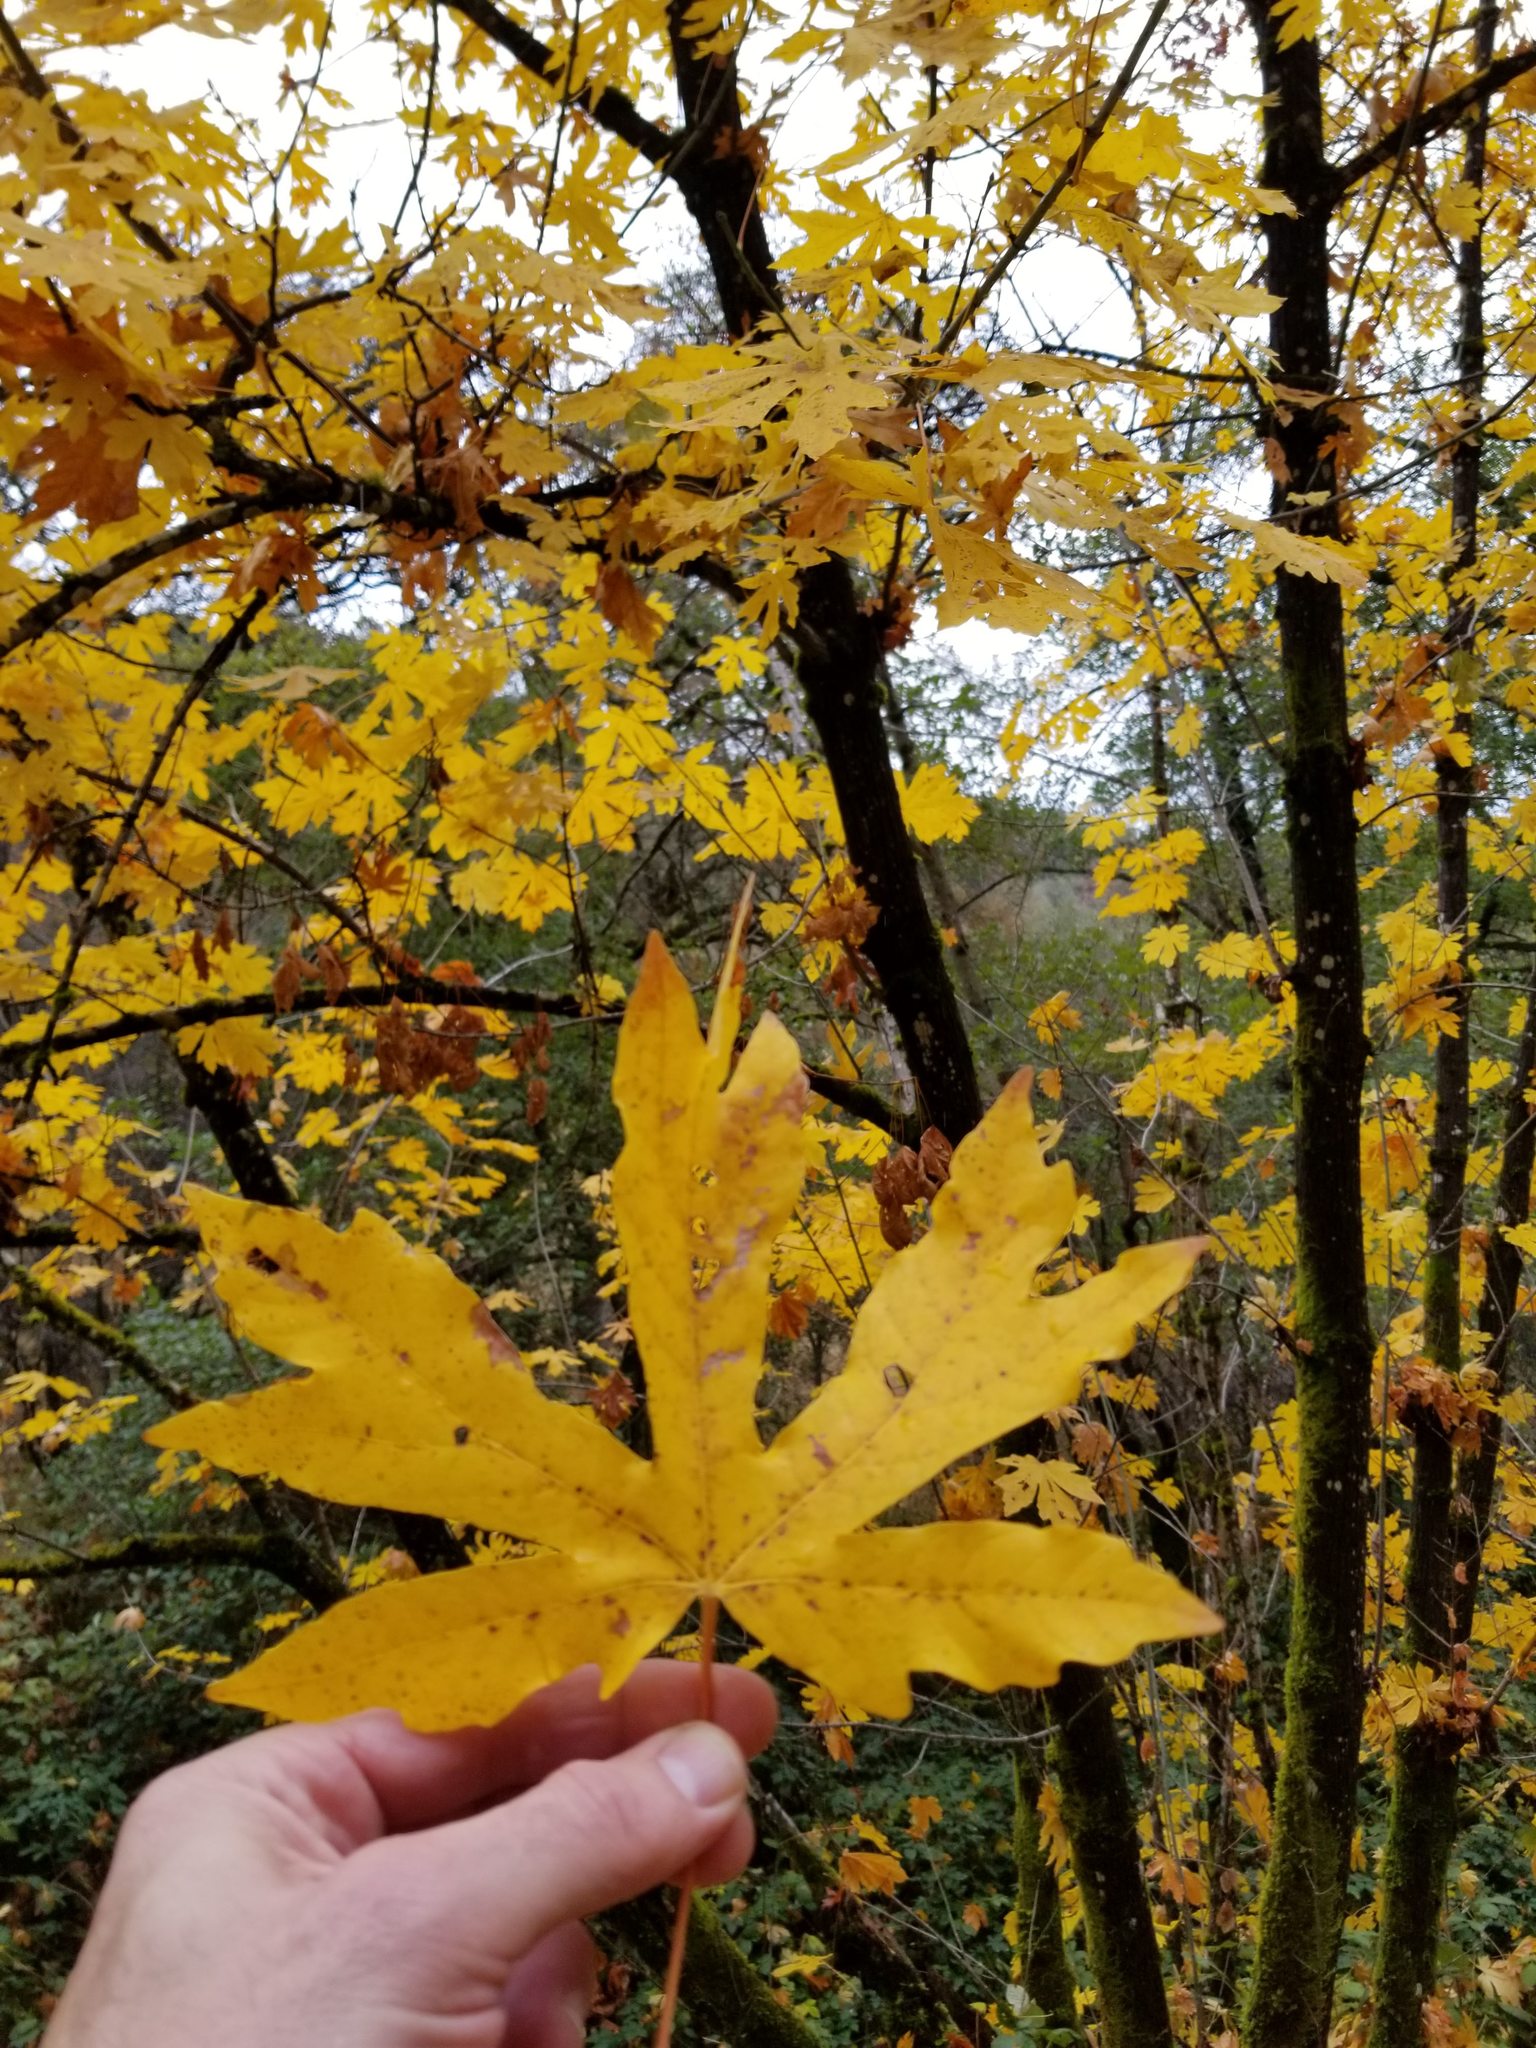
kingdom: Plantae
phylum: Tracheophyta
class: Magnoliopsida
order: Sapindales
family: Sapindaceae
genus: Acer
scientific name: Acer macrophyllum
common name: Oregon maple
